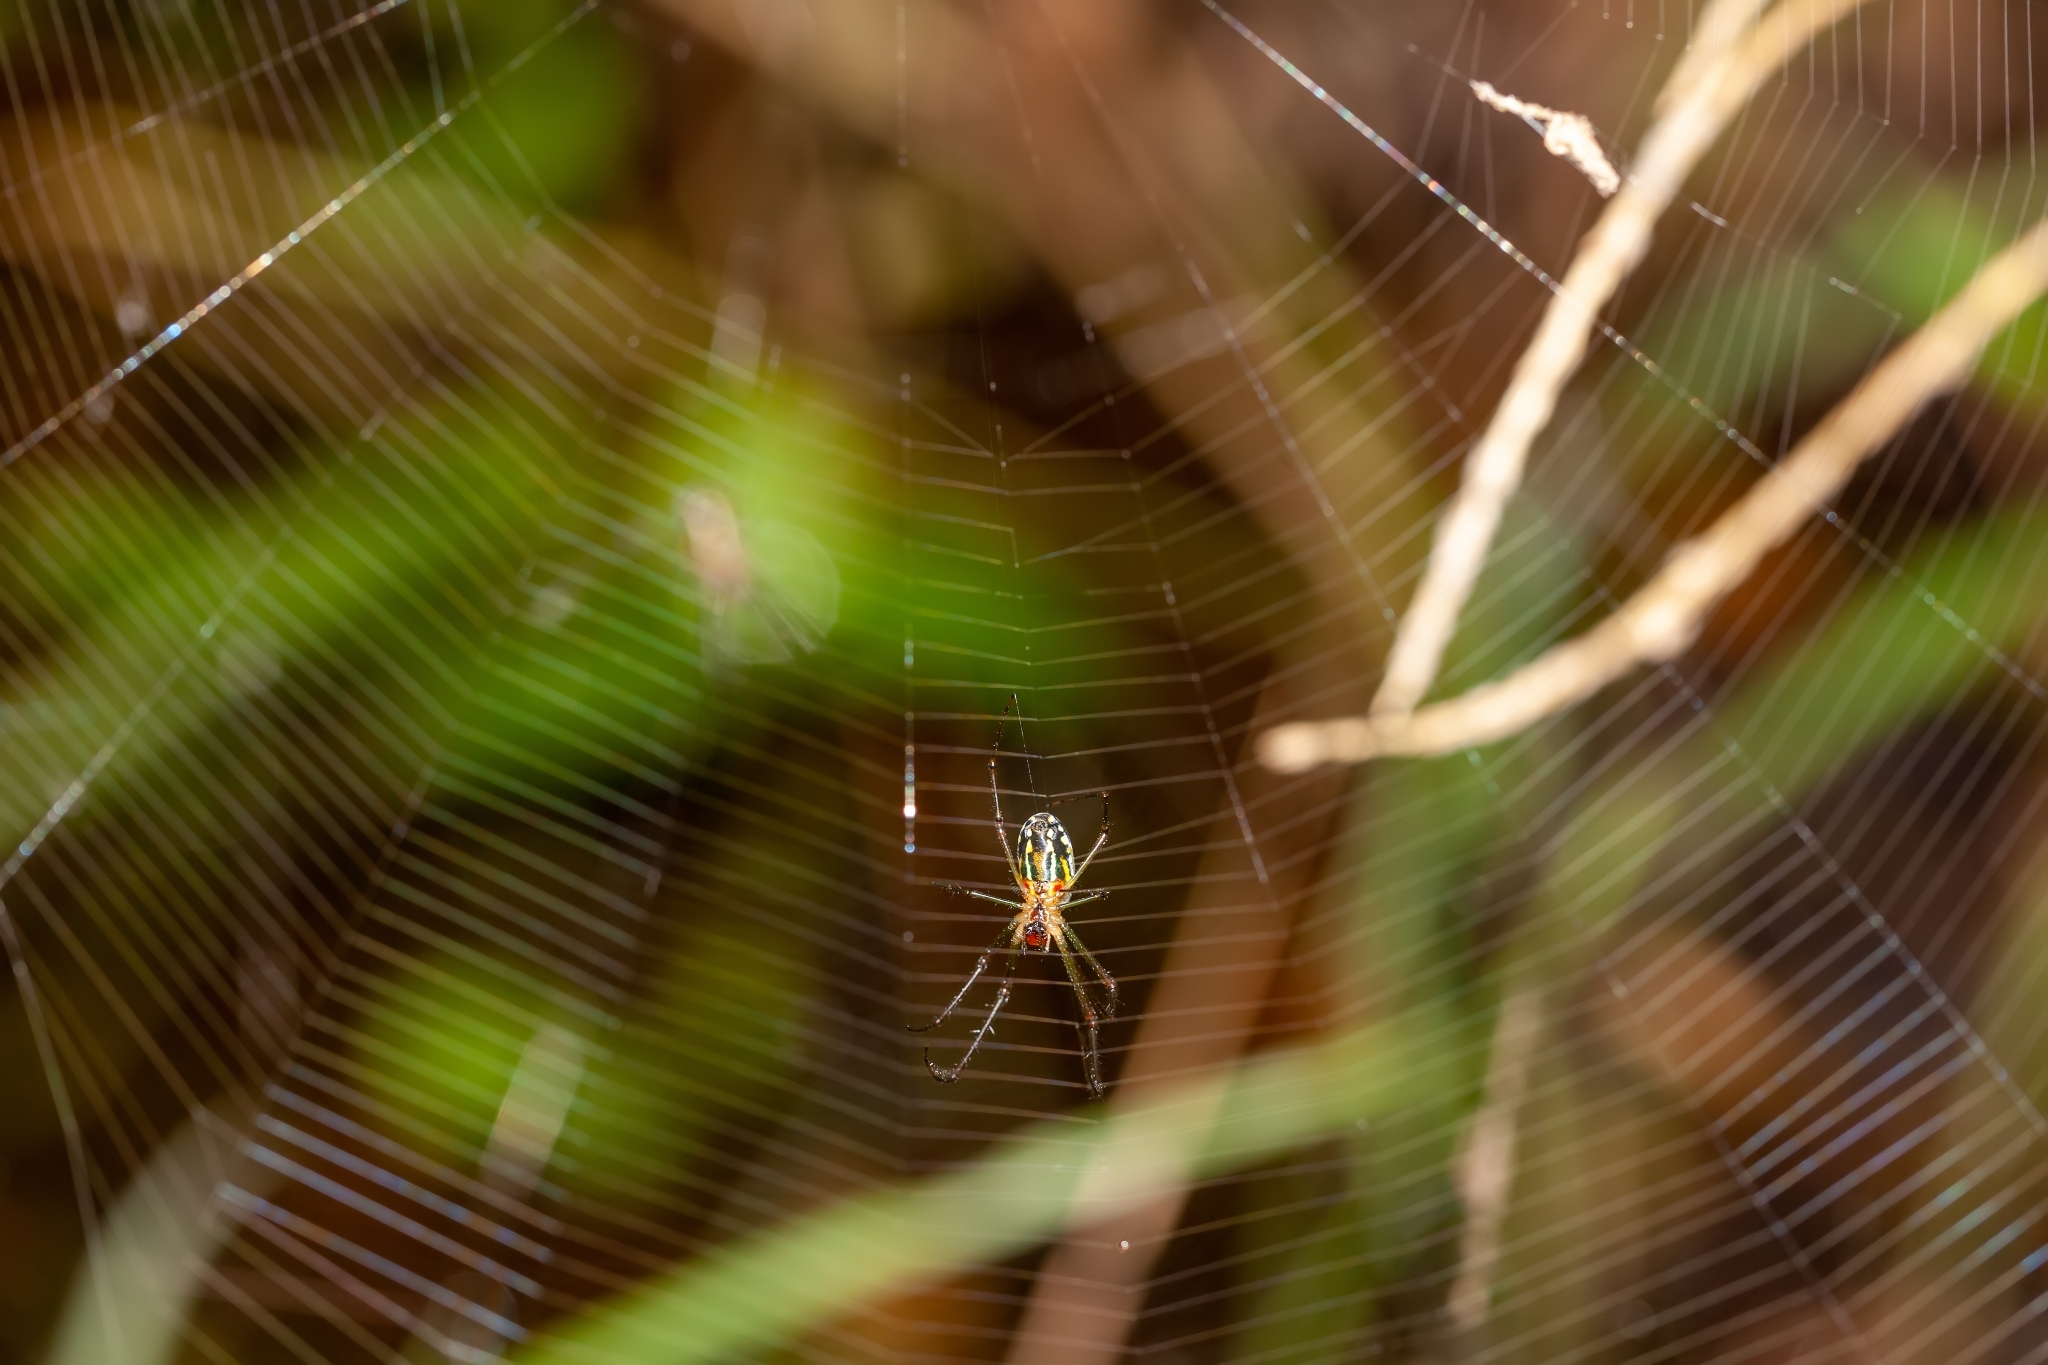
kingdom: Animalia
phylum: Arthropoda
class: Arachnida
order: Araneae
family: Tetragnathidae
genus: Leucauge
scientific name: Leucauge argyra
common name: Longjawed orb weavers
